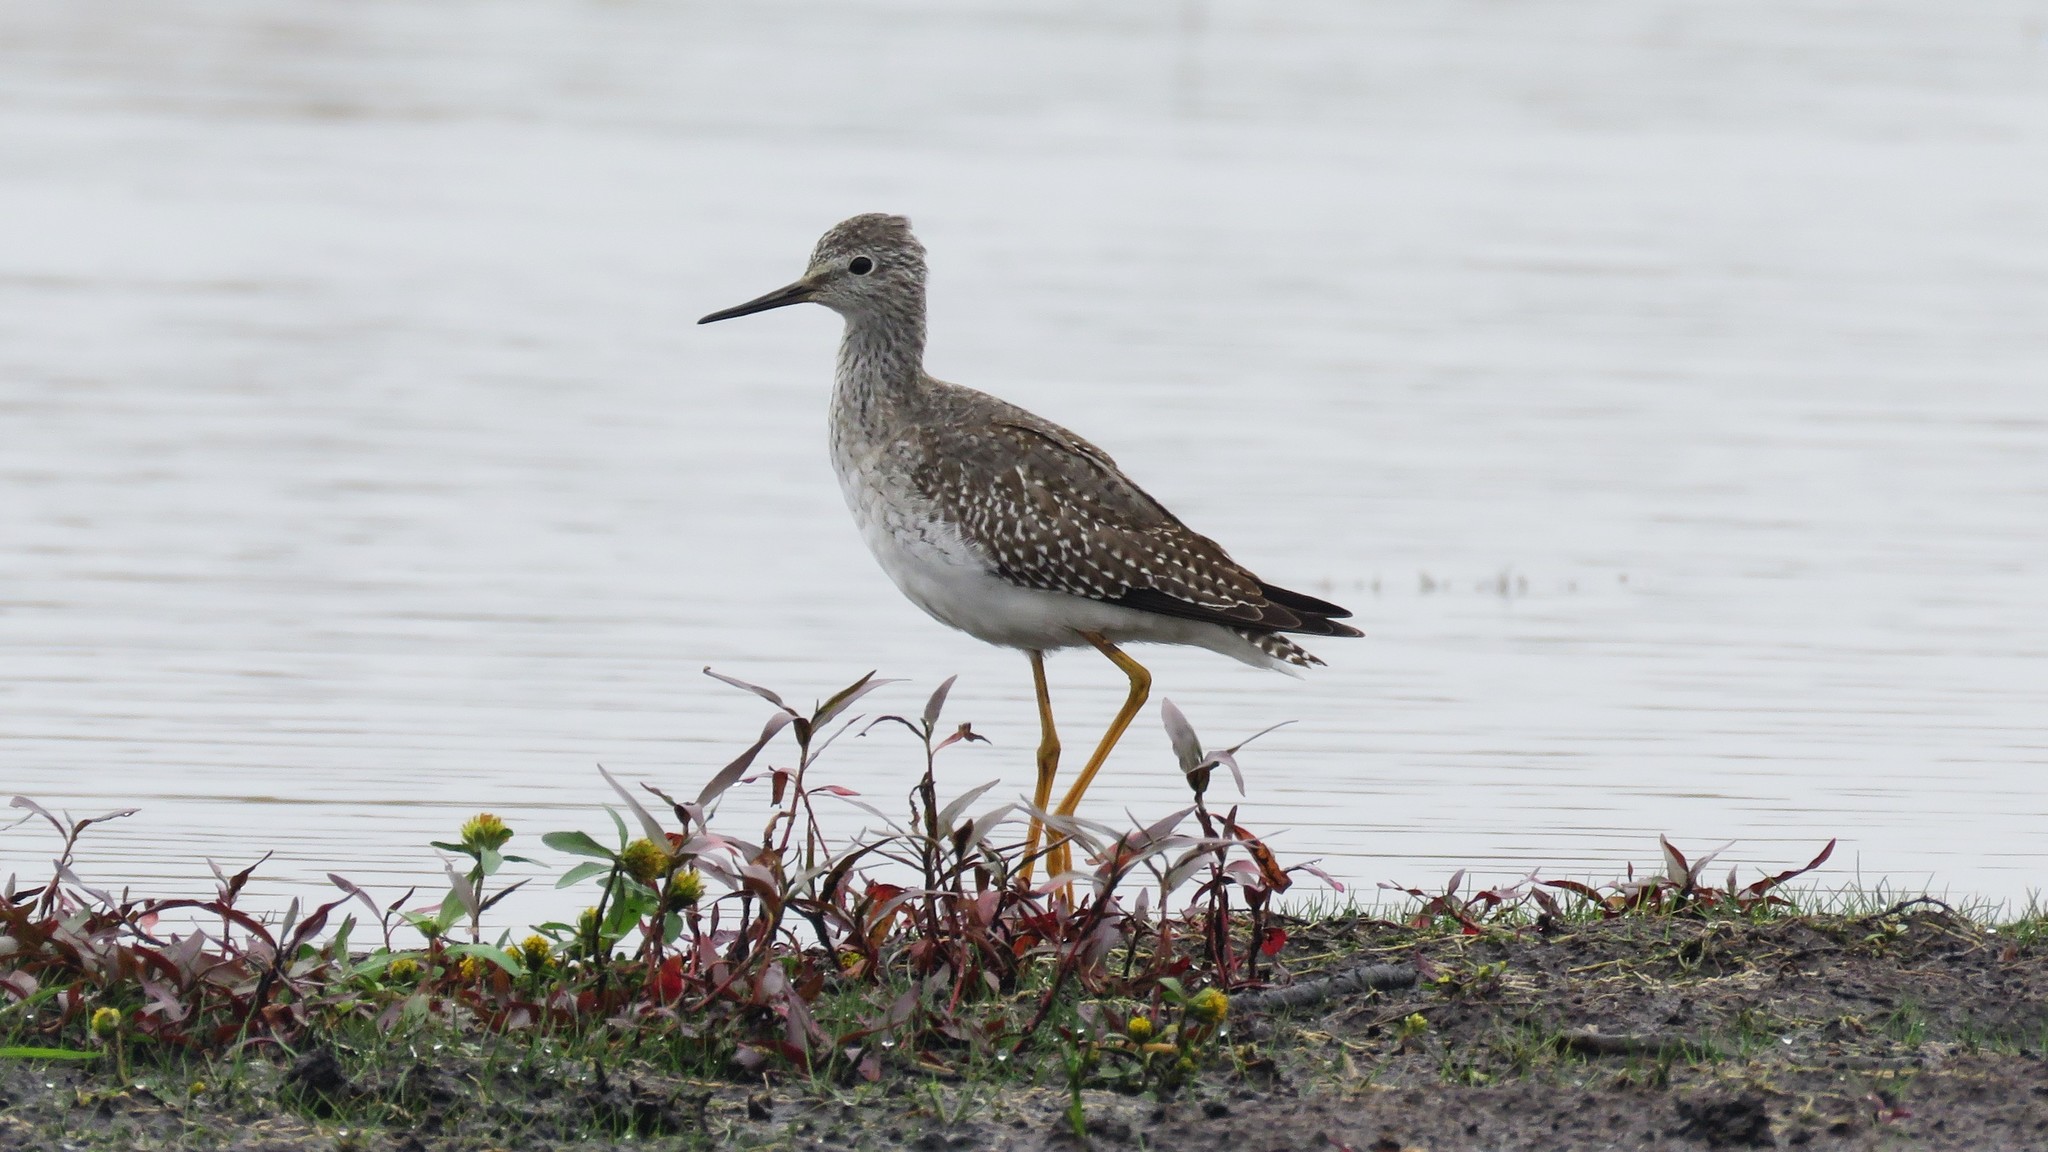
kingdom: Animalia
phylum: Chordata
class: Aves
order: Charadriiformes
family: Scolopacidae
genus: Tringa
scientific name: Tringa flavipes
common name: Lesser yellowlegs
